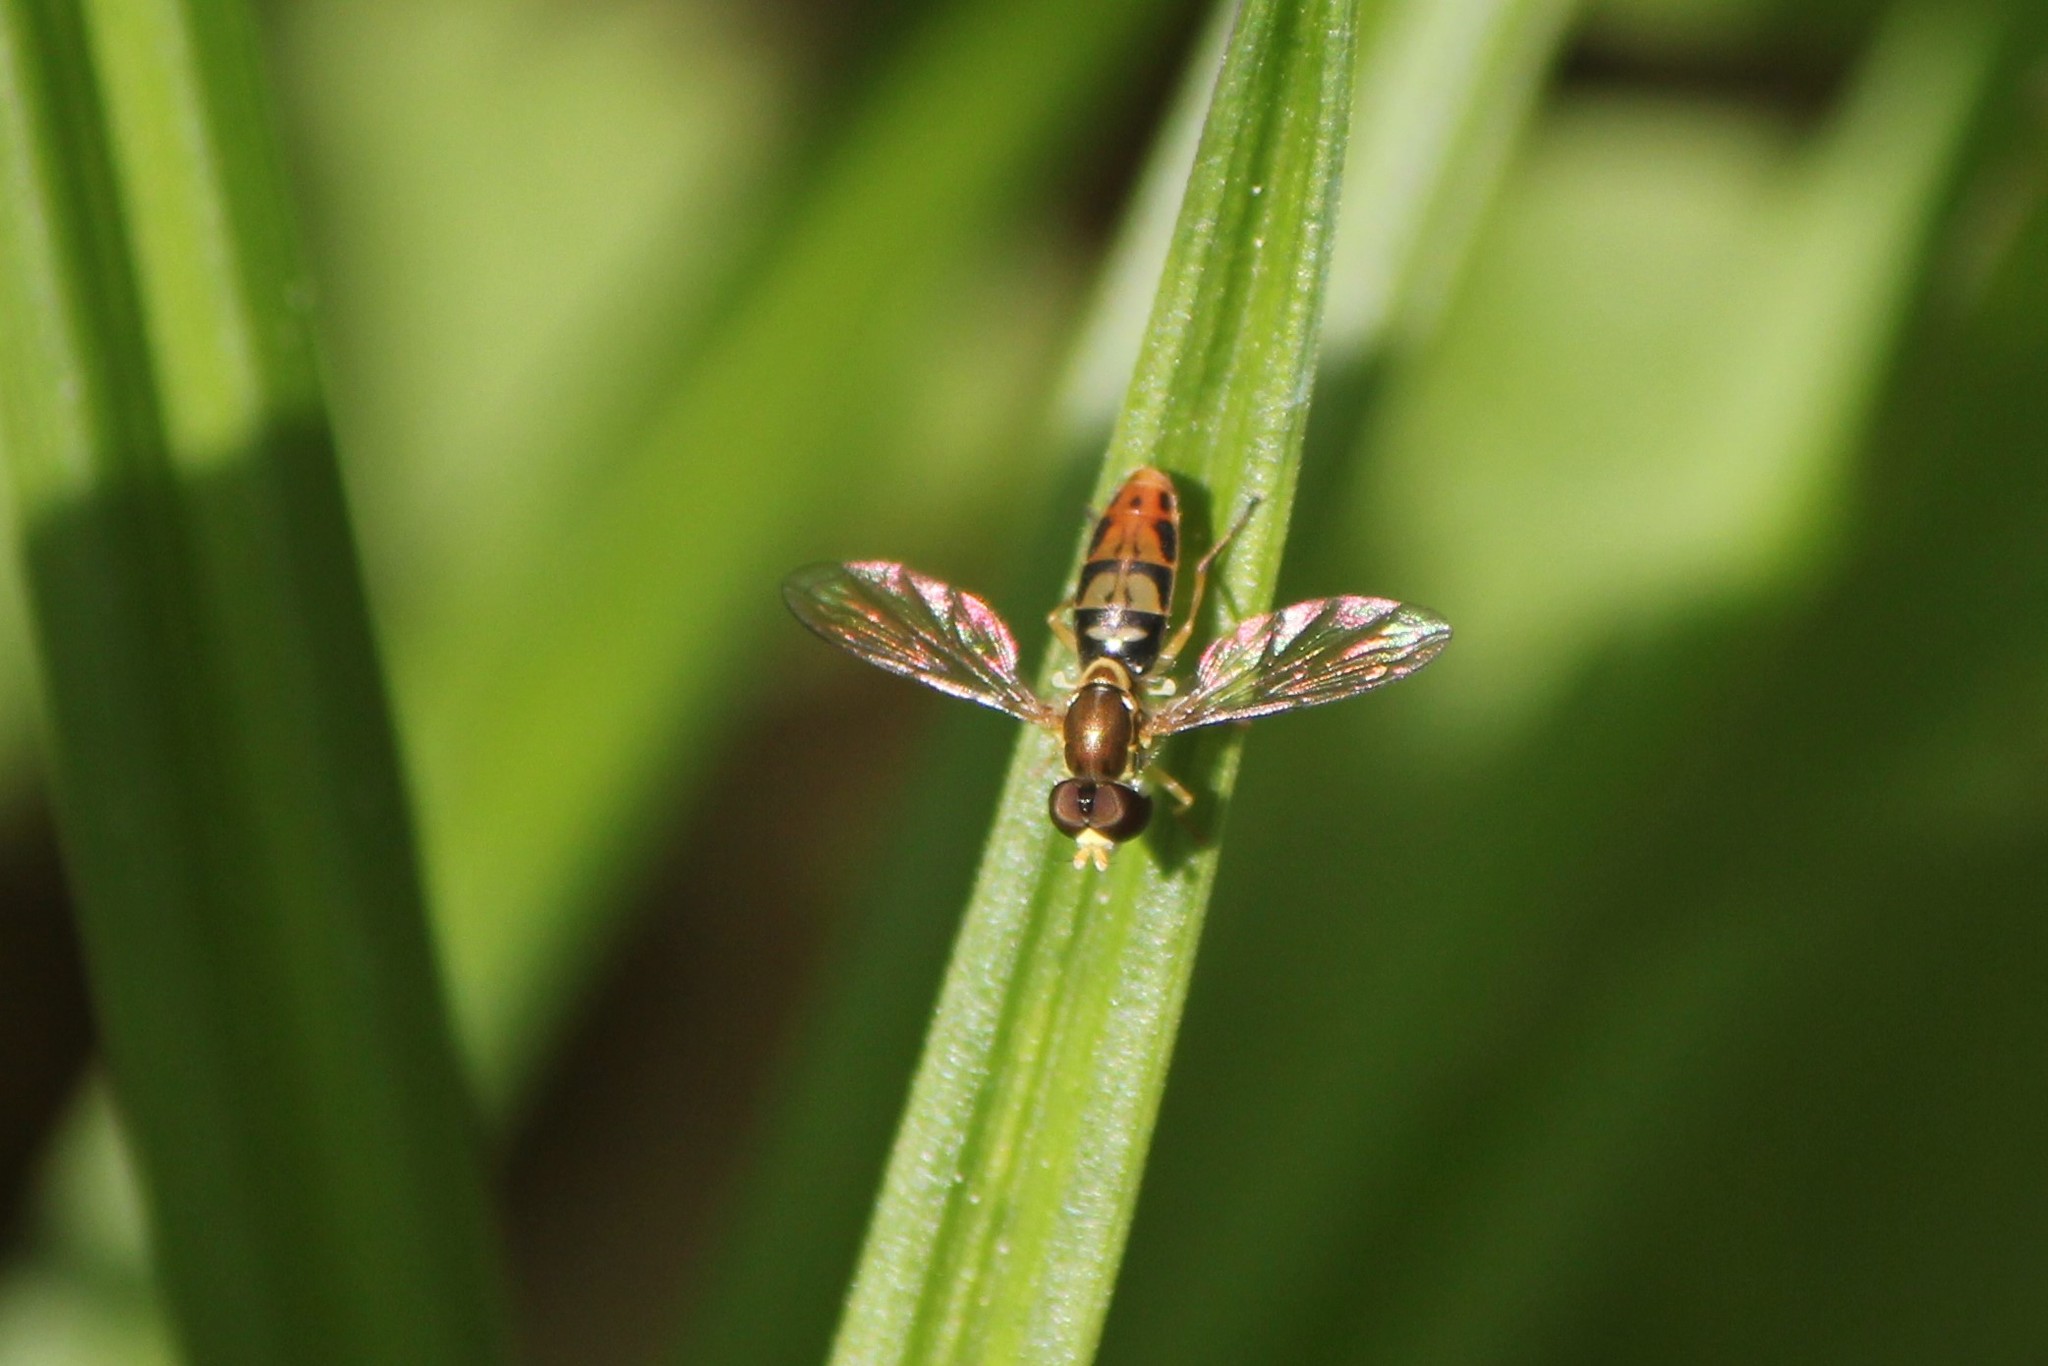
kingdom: Animalia
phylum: Arthropoda
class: Insecta
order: Diptera
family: Syrphidae
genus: Toxomerus
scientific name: Toxomerus marginatus
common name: Syrphid fly
